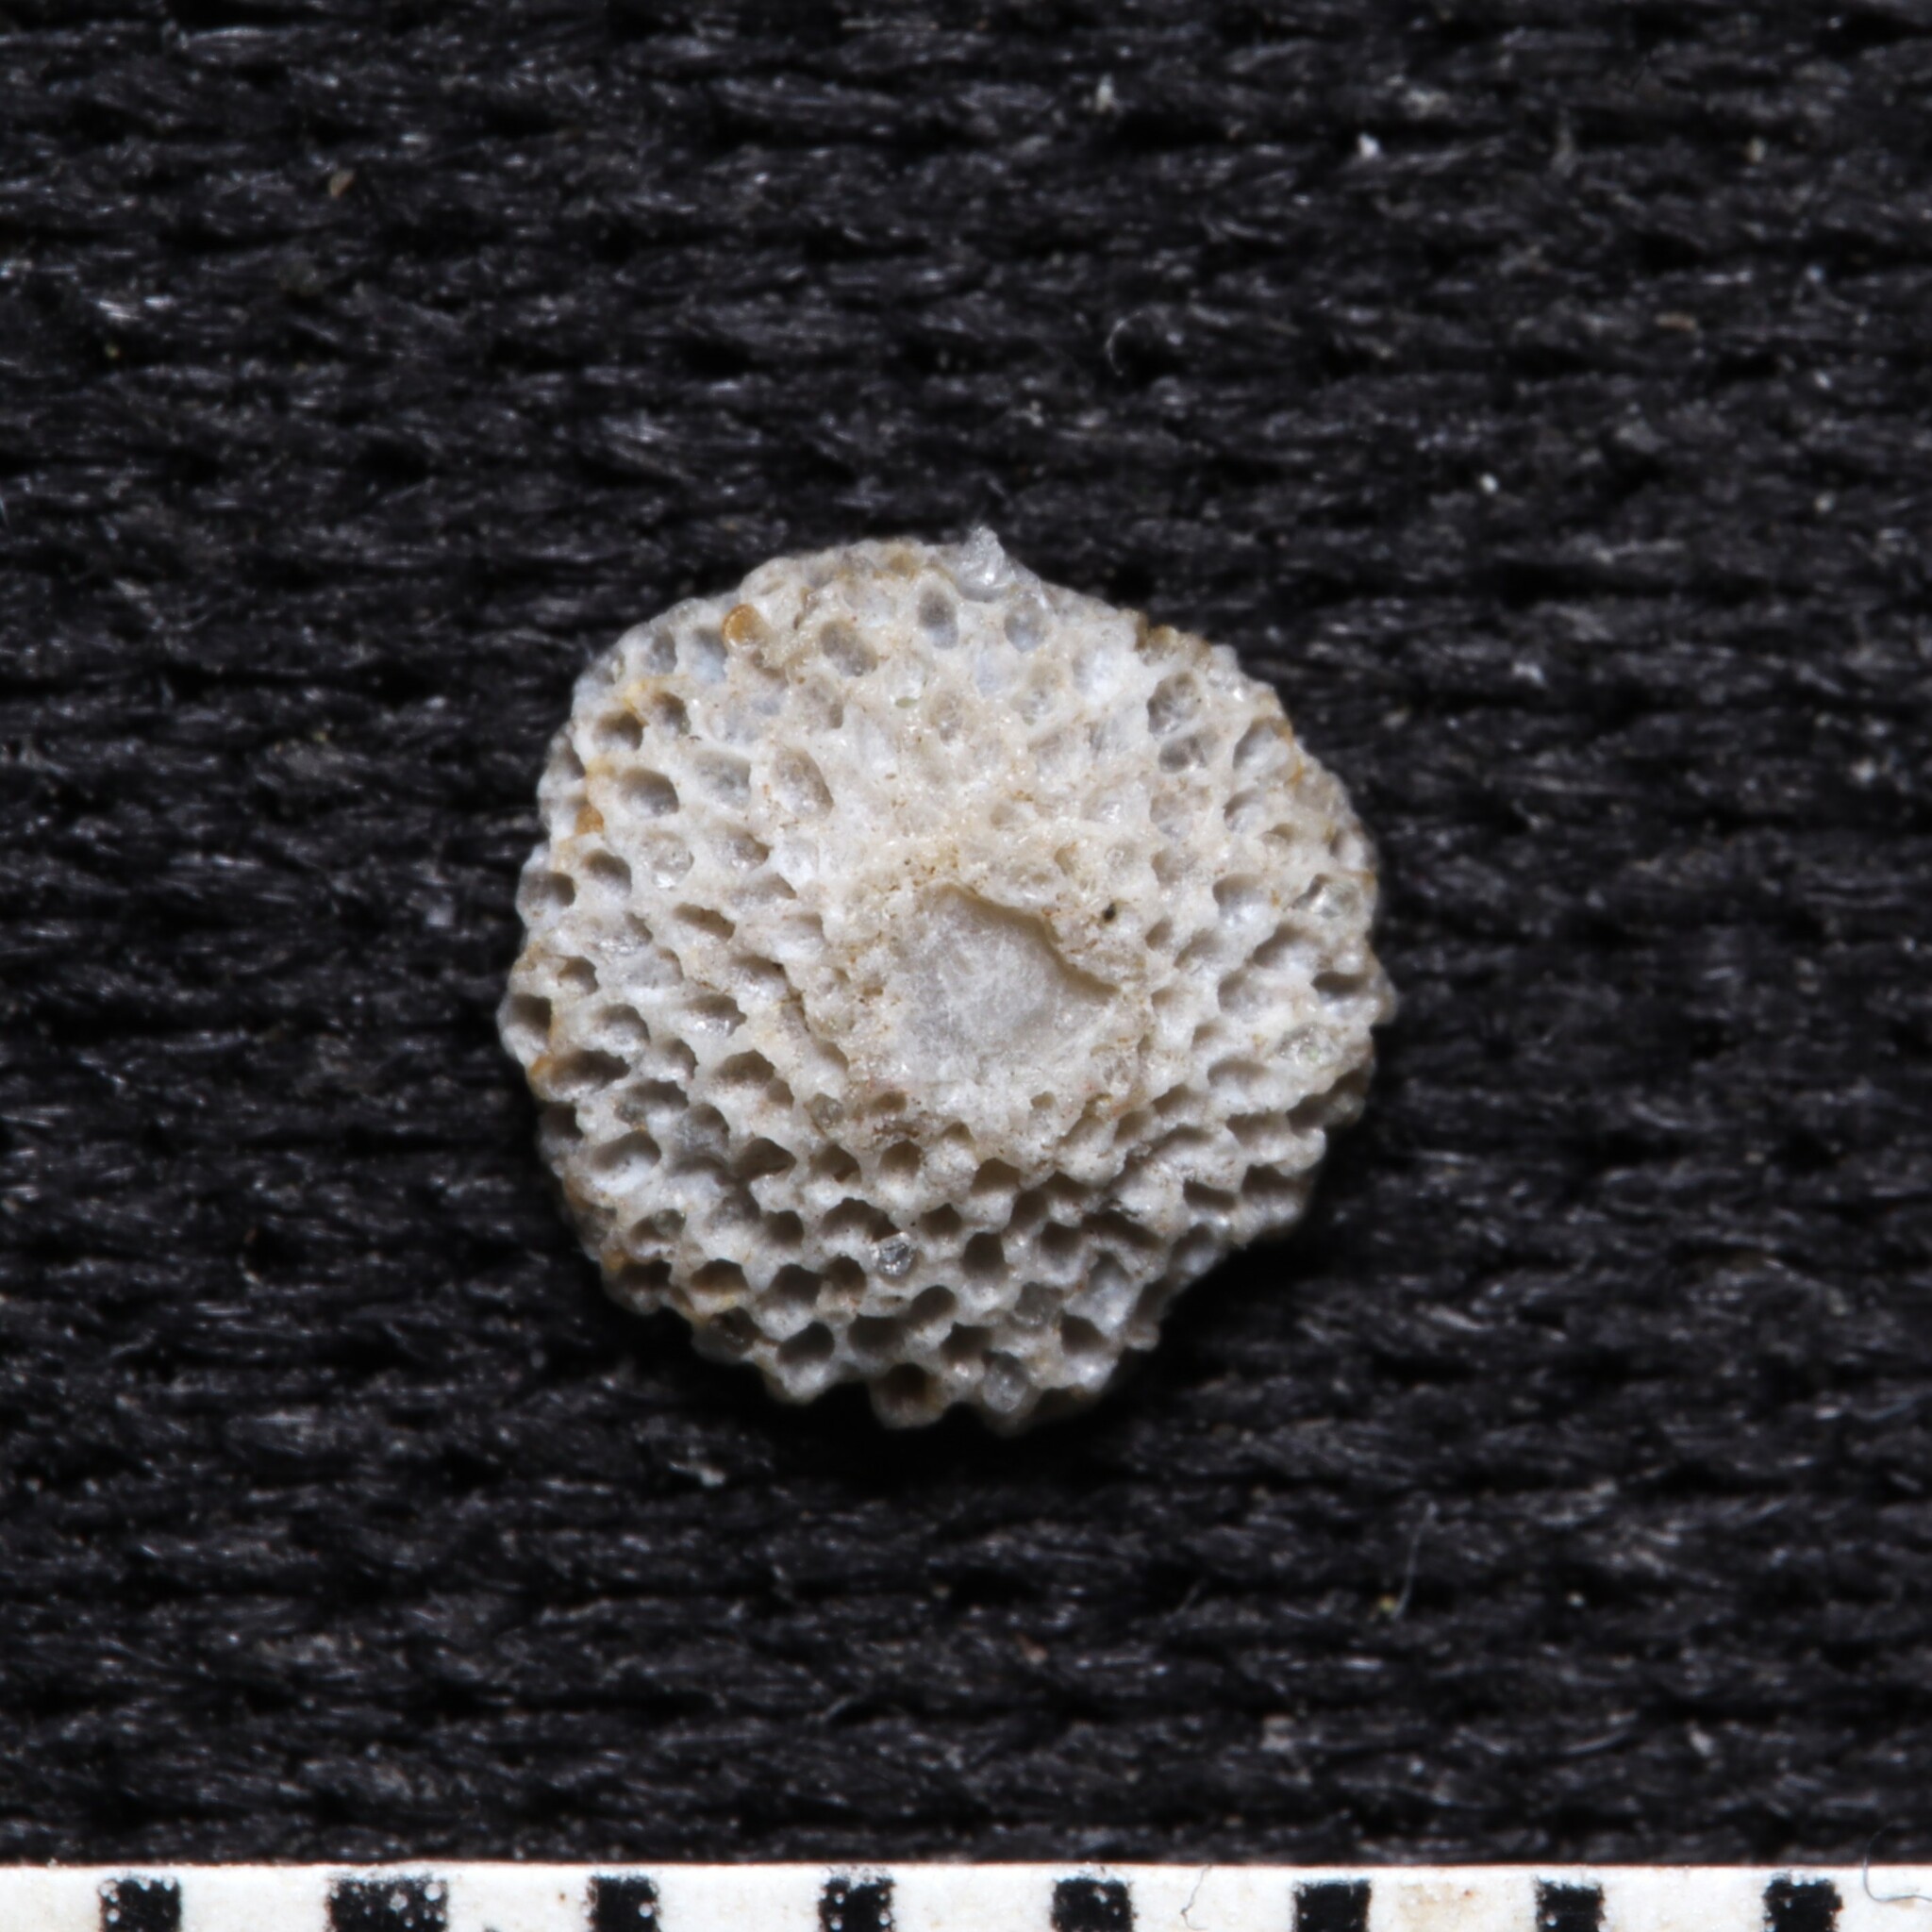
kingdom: Animalia
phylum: Bryozoa
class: Gymnolaemata
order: Cheilostomatida
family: Cupuladriidae
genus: Discoporella
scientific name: Discoporella umbellata
